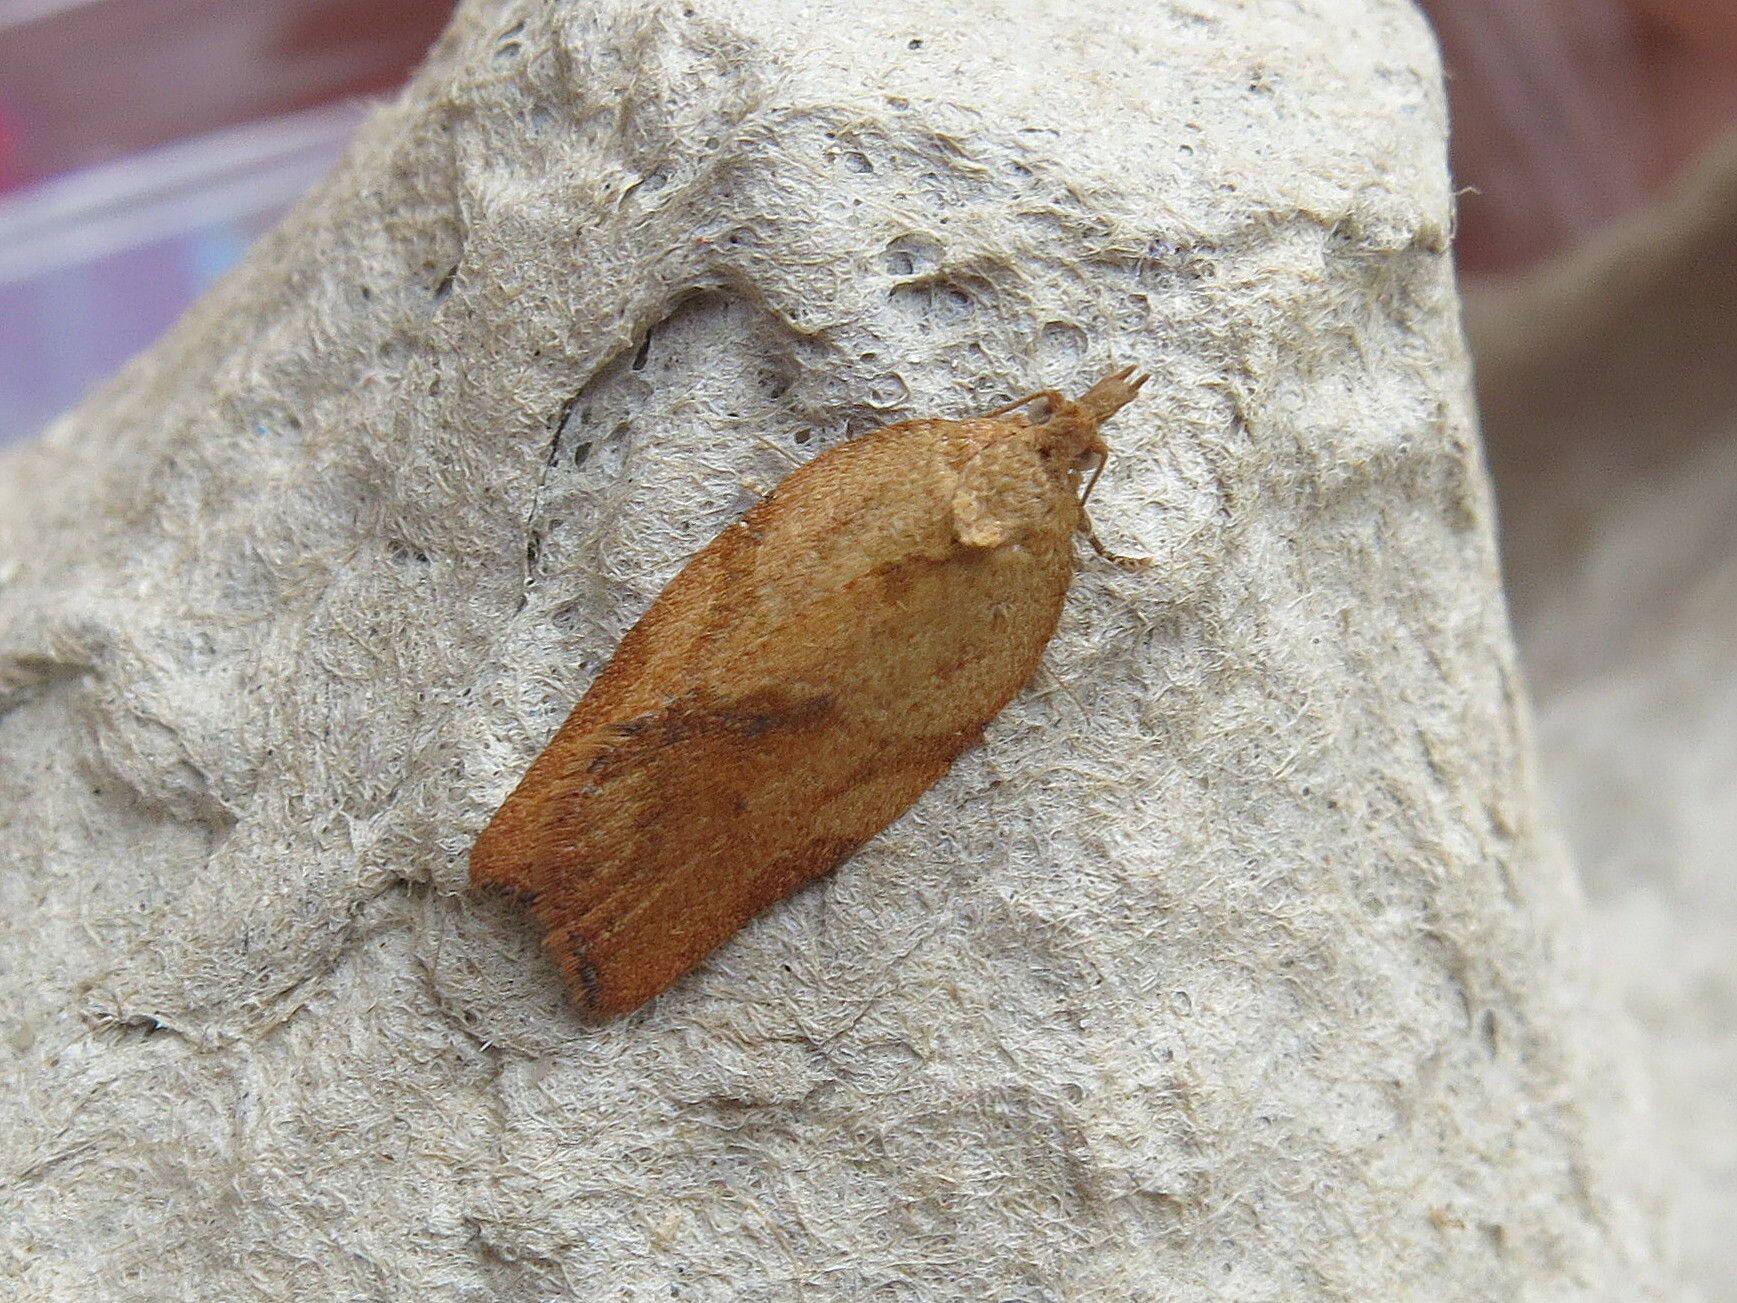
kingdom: Animalia
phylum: Arthropoda
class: Insecta
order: Lepidoptera
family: Tortricidae
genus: Epiphyas
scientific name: Epiphyas postvittana
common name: Light brown apple moth
